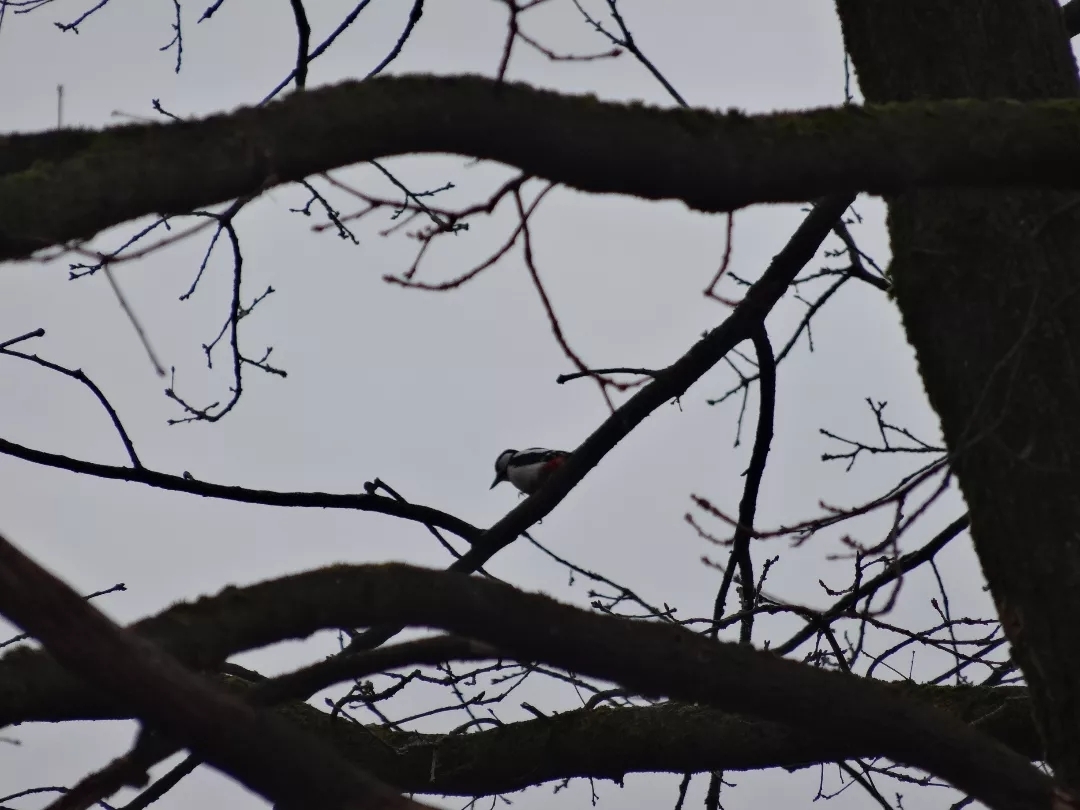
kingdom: Animalia
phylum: Chordata
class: Aves
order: Piciformes
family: Picidae
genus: Dendrocopos
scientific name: Dendrocopos major
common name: Great spotted woodpecker
